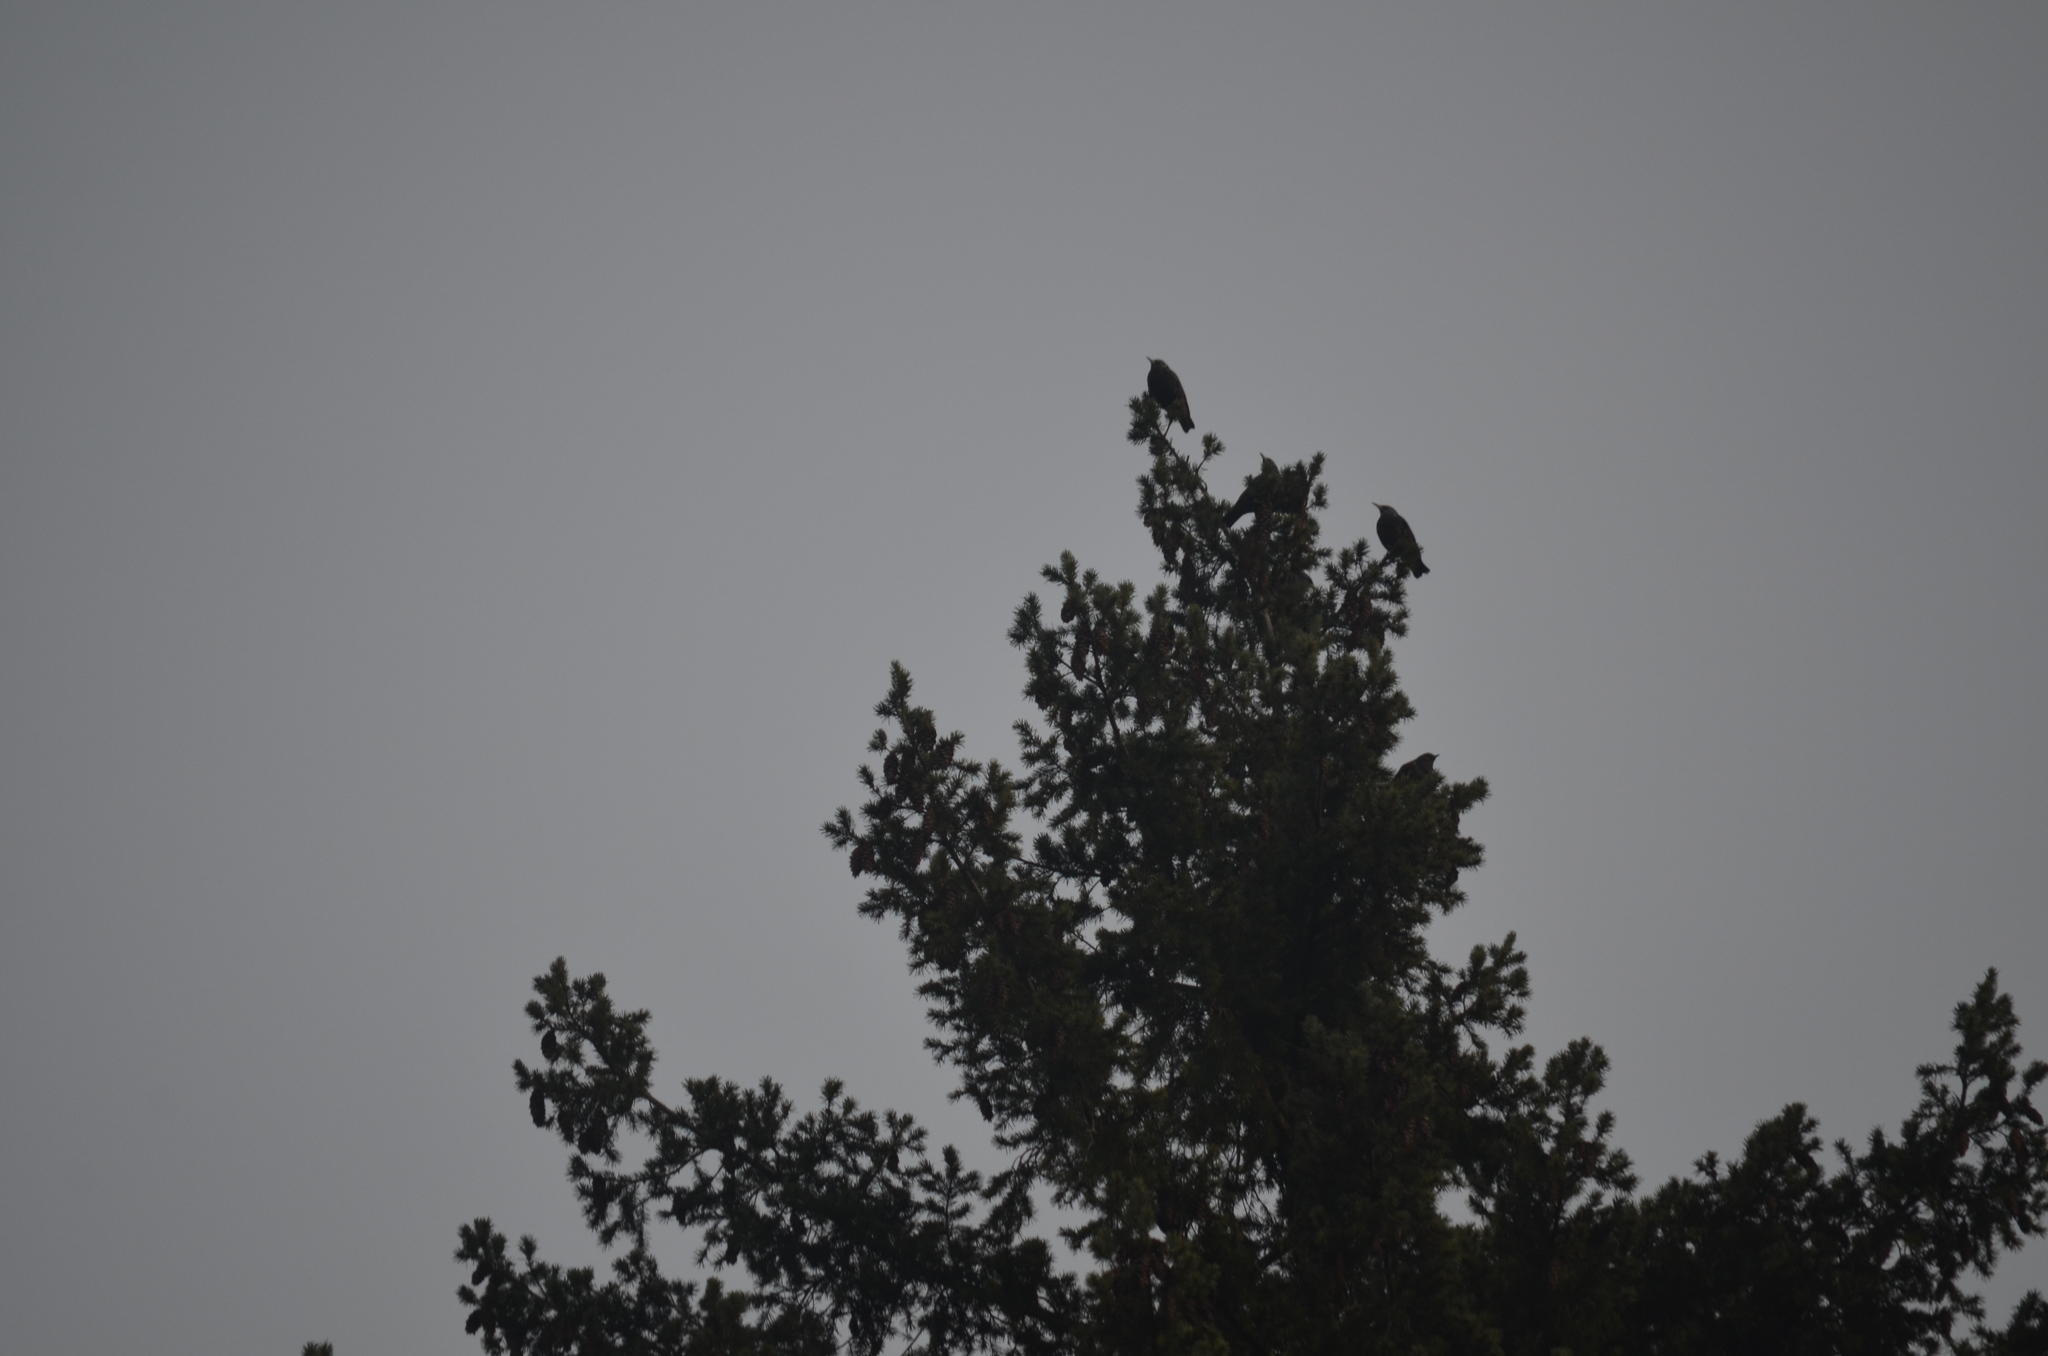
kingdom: Animalia
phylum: Chordata
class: Aves
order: Passeriformes
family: Sturnidae
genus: Sturnus
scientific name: Sturnus vulgaris
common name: Common starling
